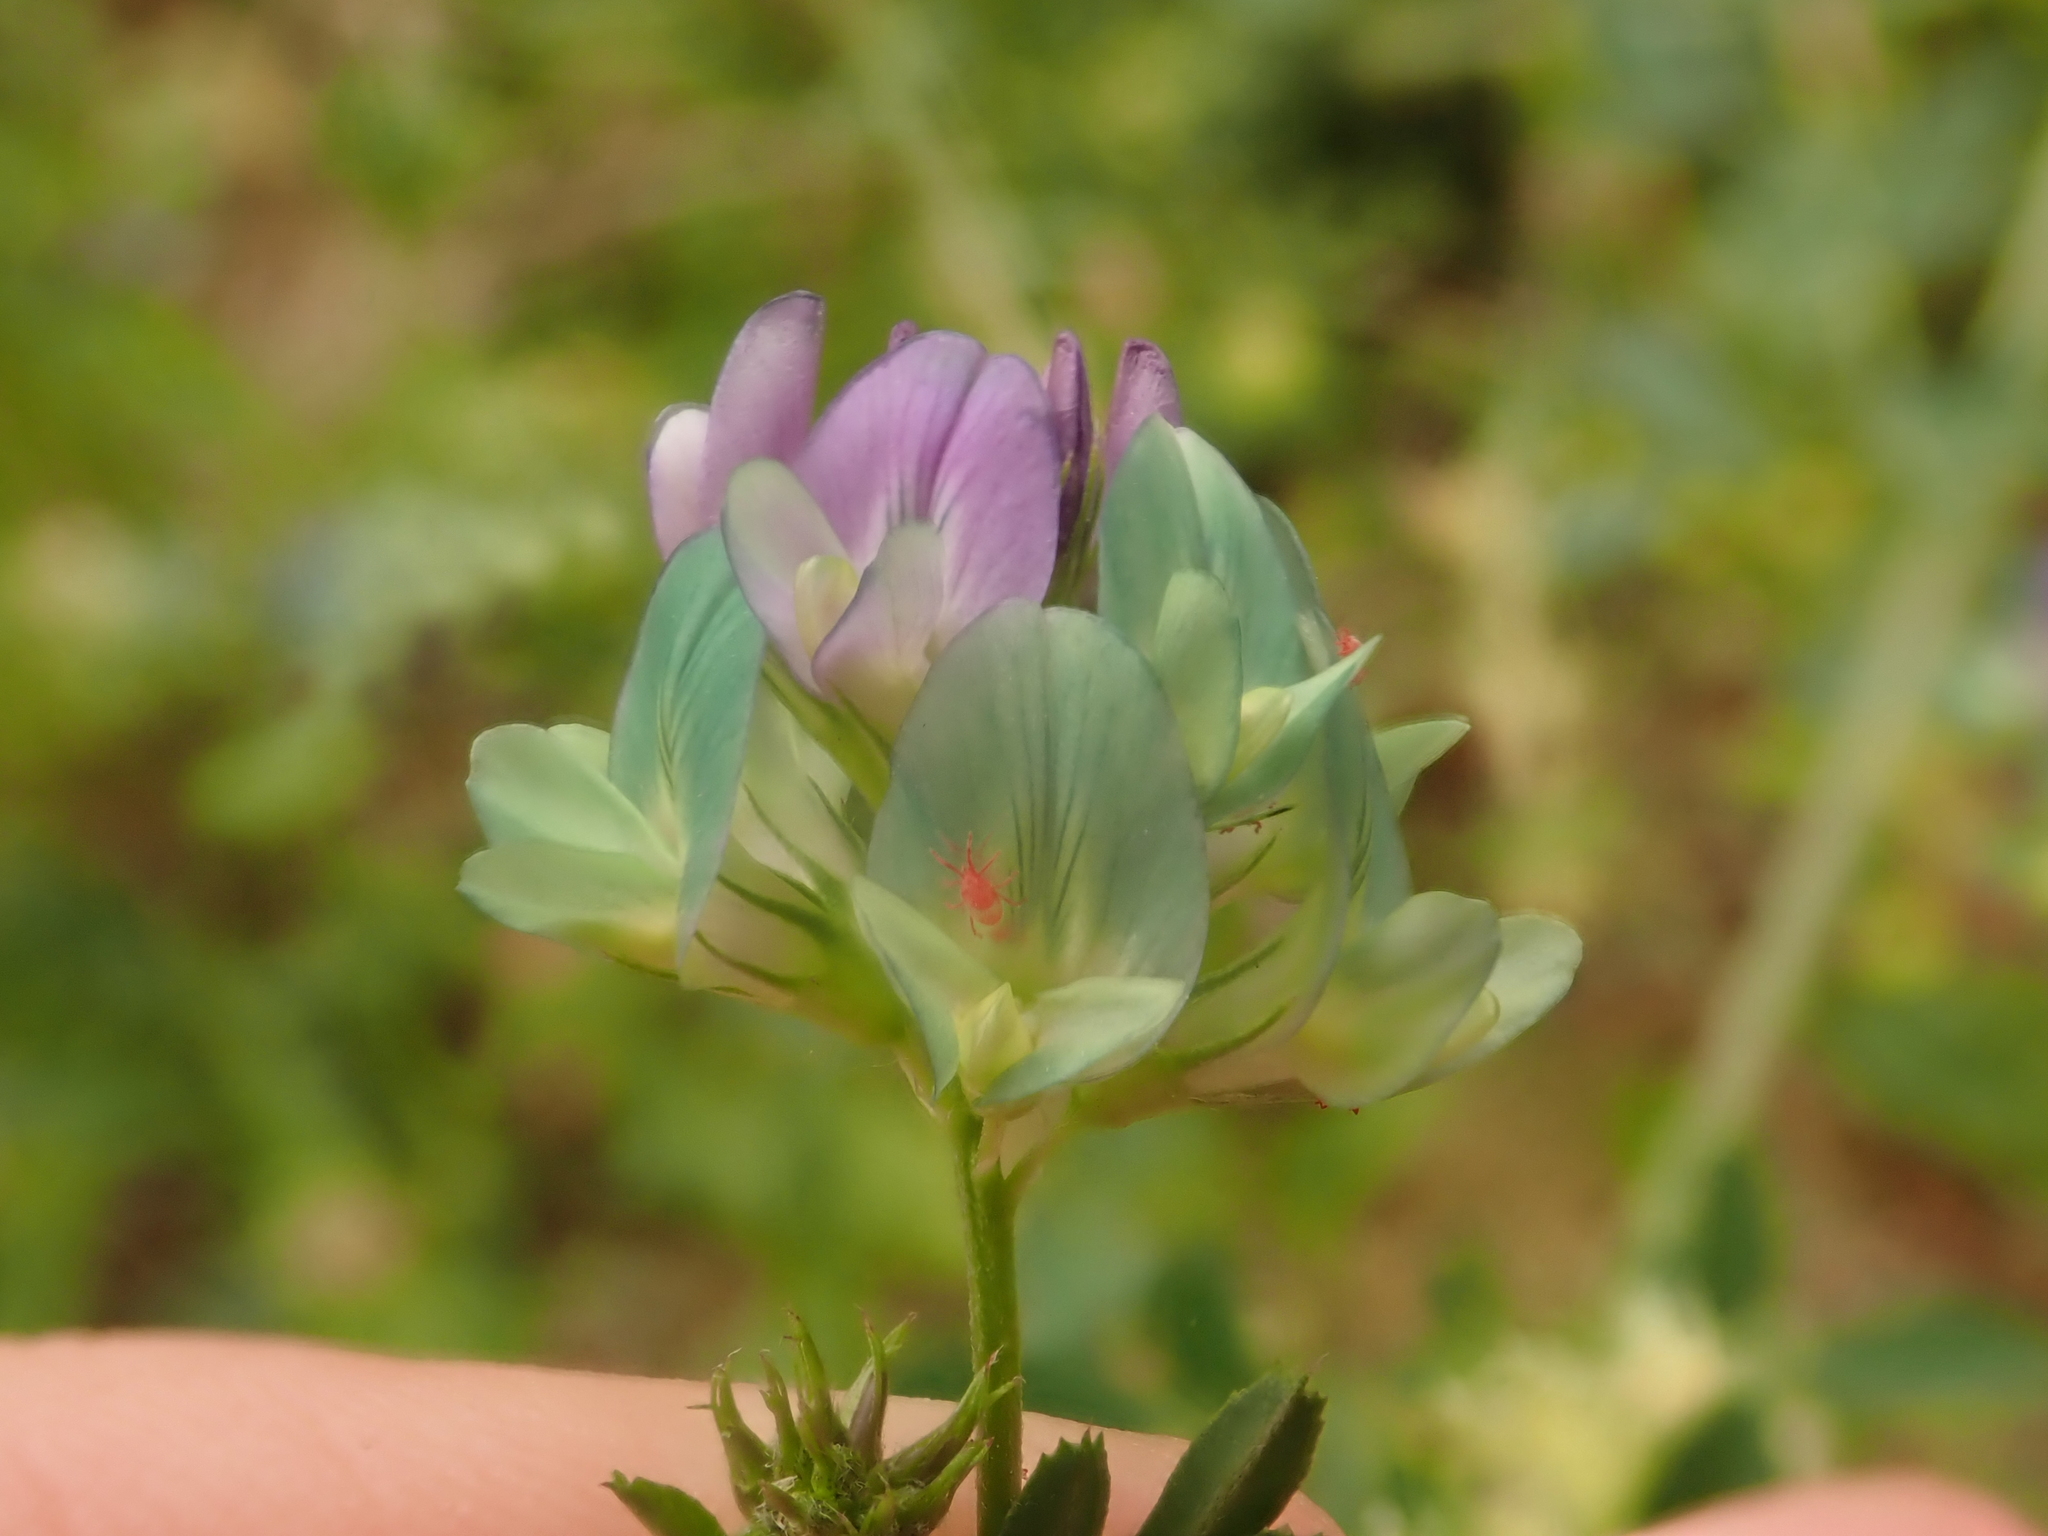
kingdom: Plantae
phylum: Tracheophyta
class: Magnoliopsida
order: Fabales
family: Fabaceae
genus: Medicago
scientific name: Medicago varia
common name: Sand lucerne
